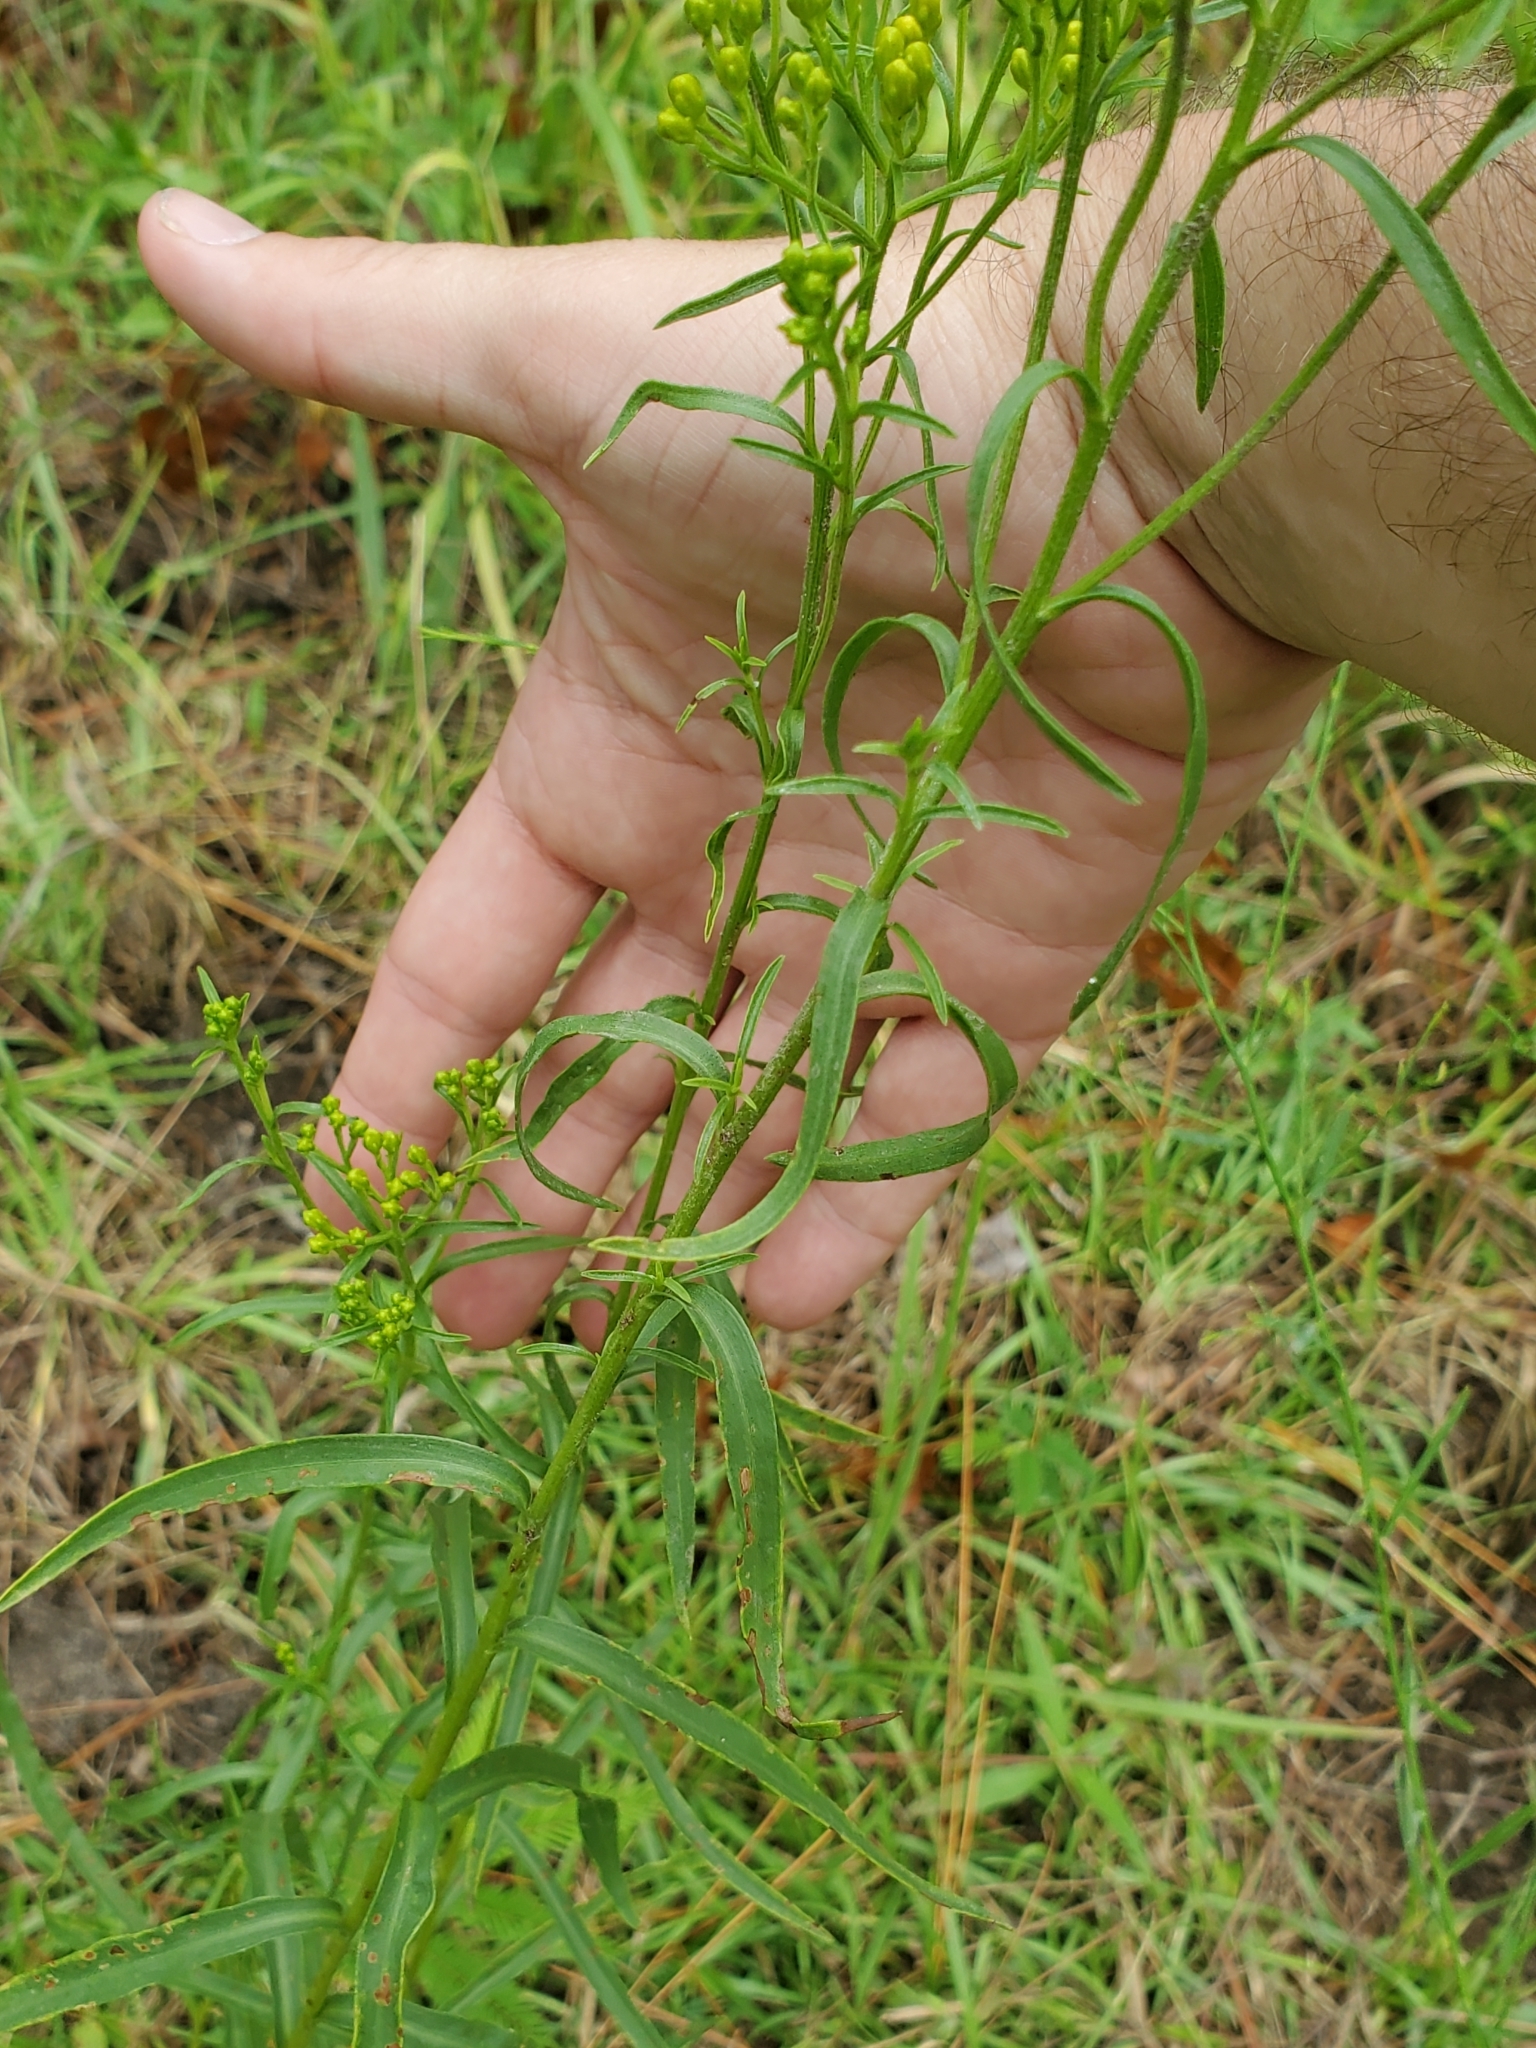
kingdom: Plantae
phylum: Tracheophyta
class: Magnoliopsida
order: Asterales
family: Asteraceae
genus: Euthamia
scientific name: Euthamia leptocephala
